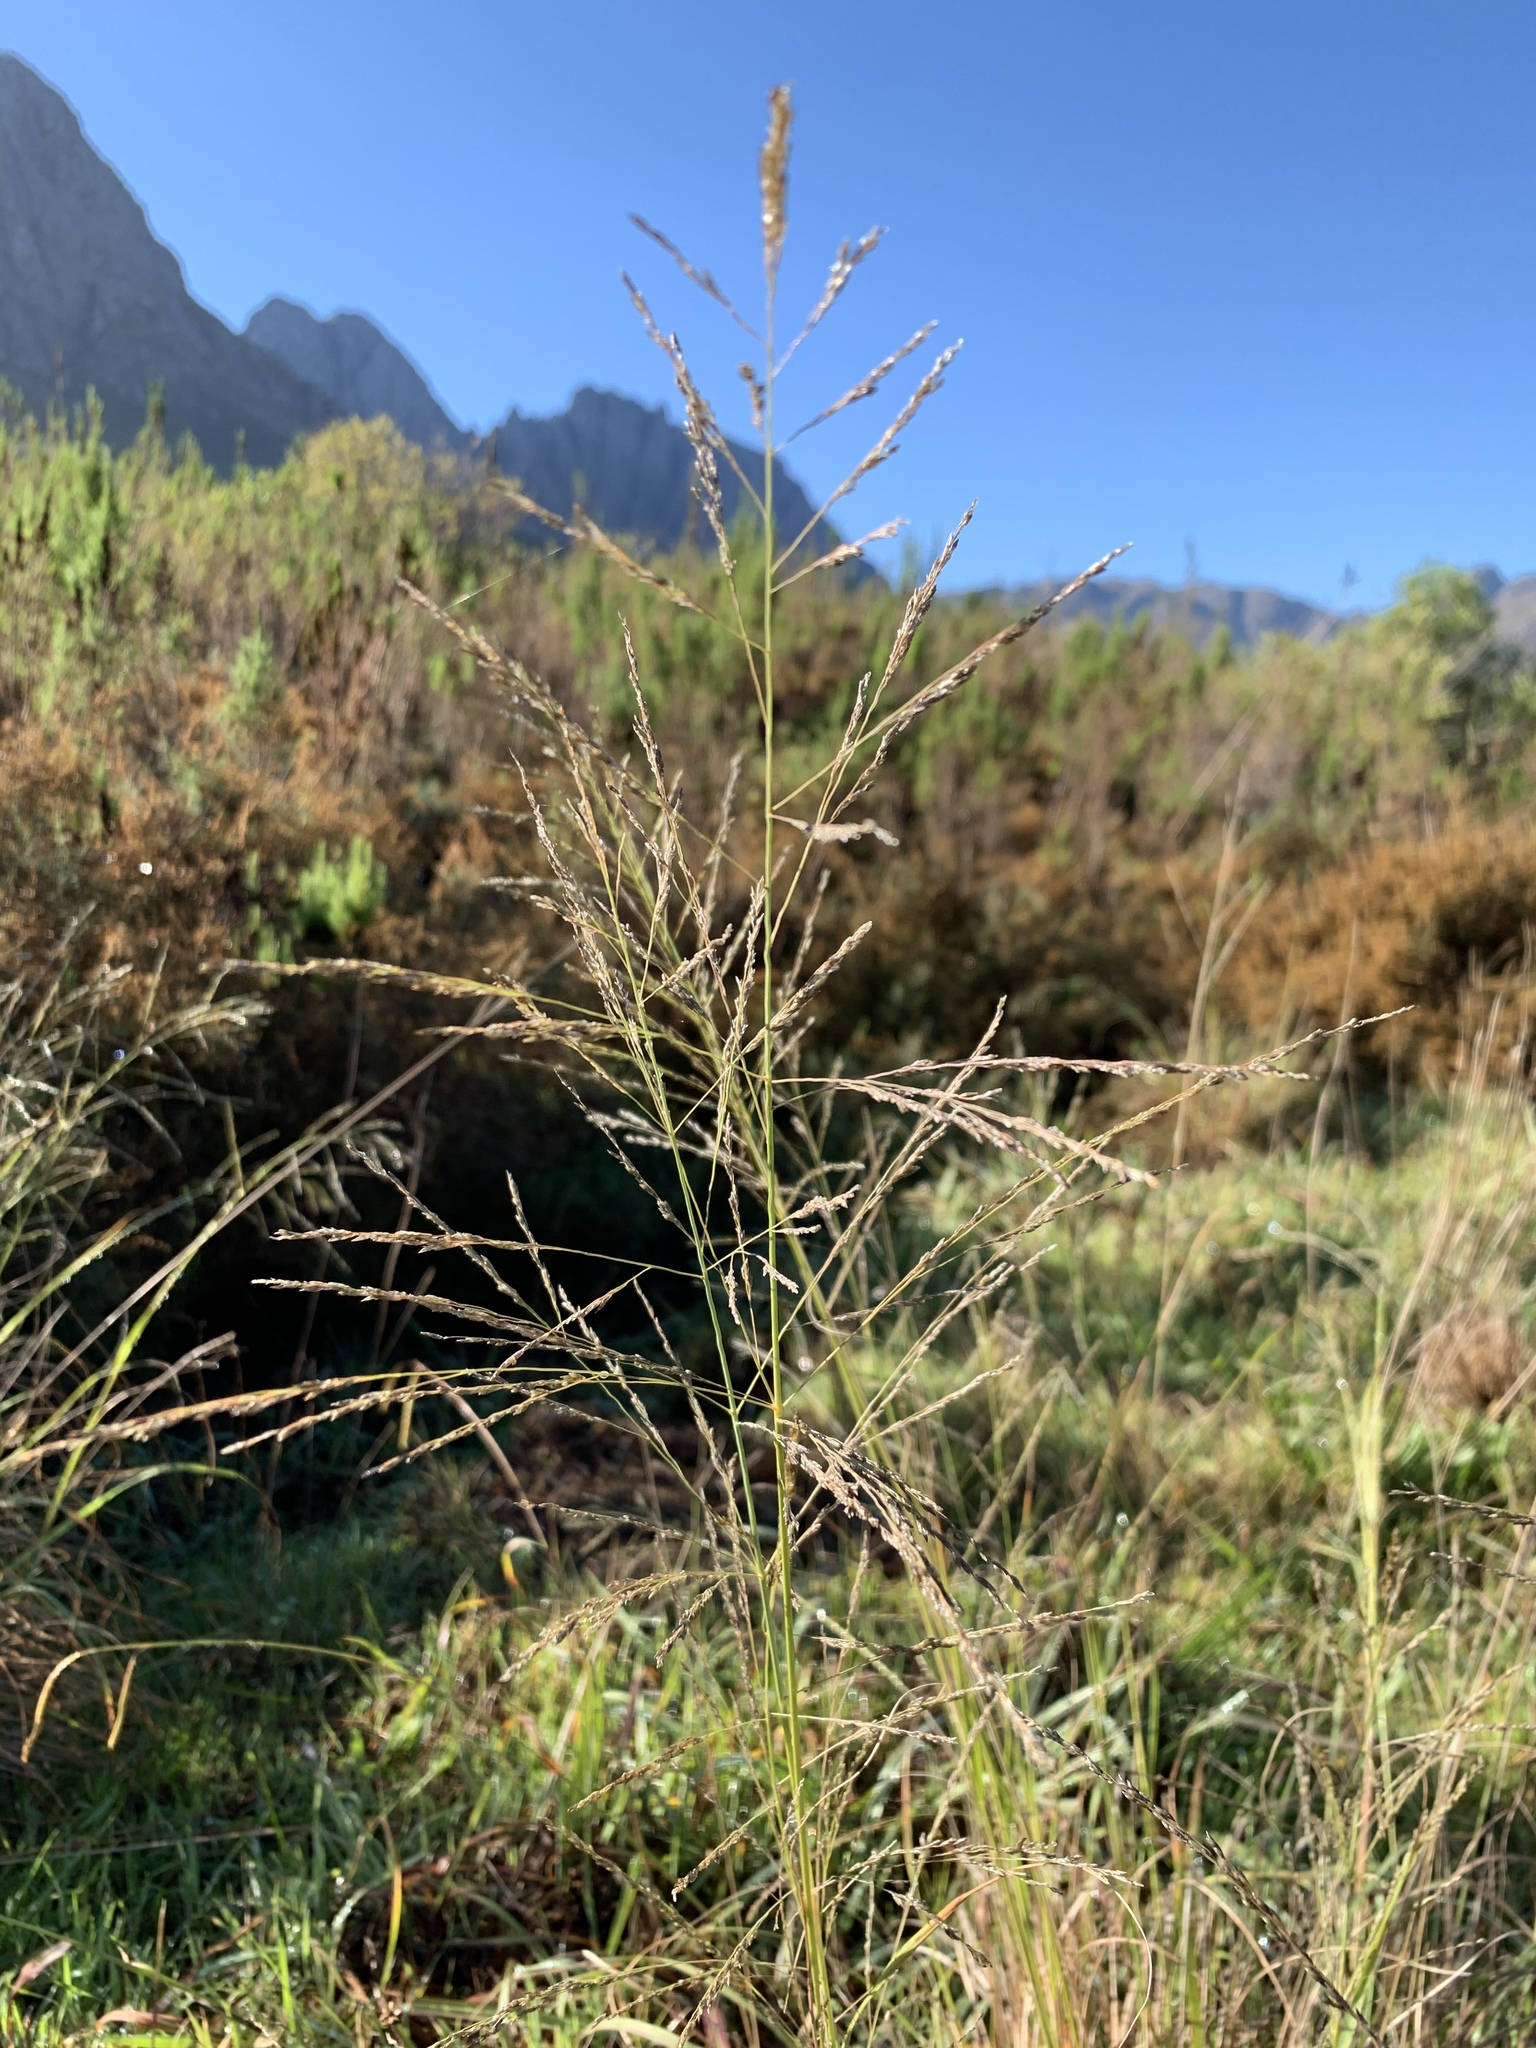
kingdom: Plantae
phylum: Tracheophyta
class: Liliopsida
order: Poales
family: Poaceae
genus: Eragrostis
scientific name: Eragrostis curvula
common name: African love-grass
